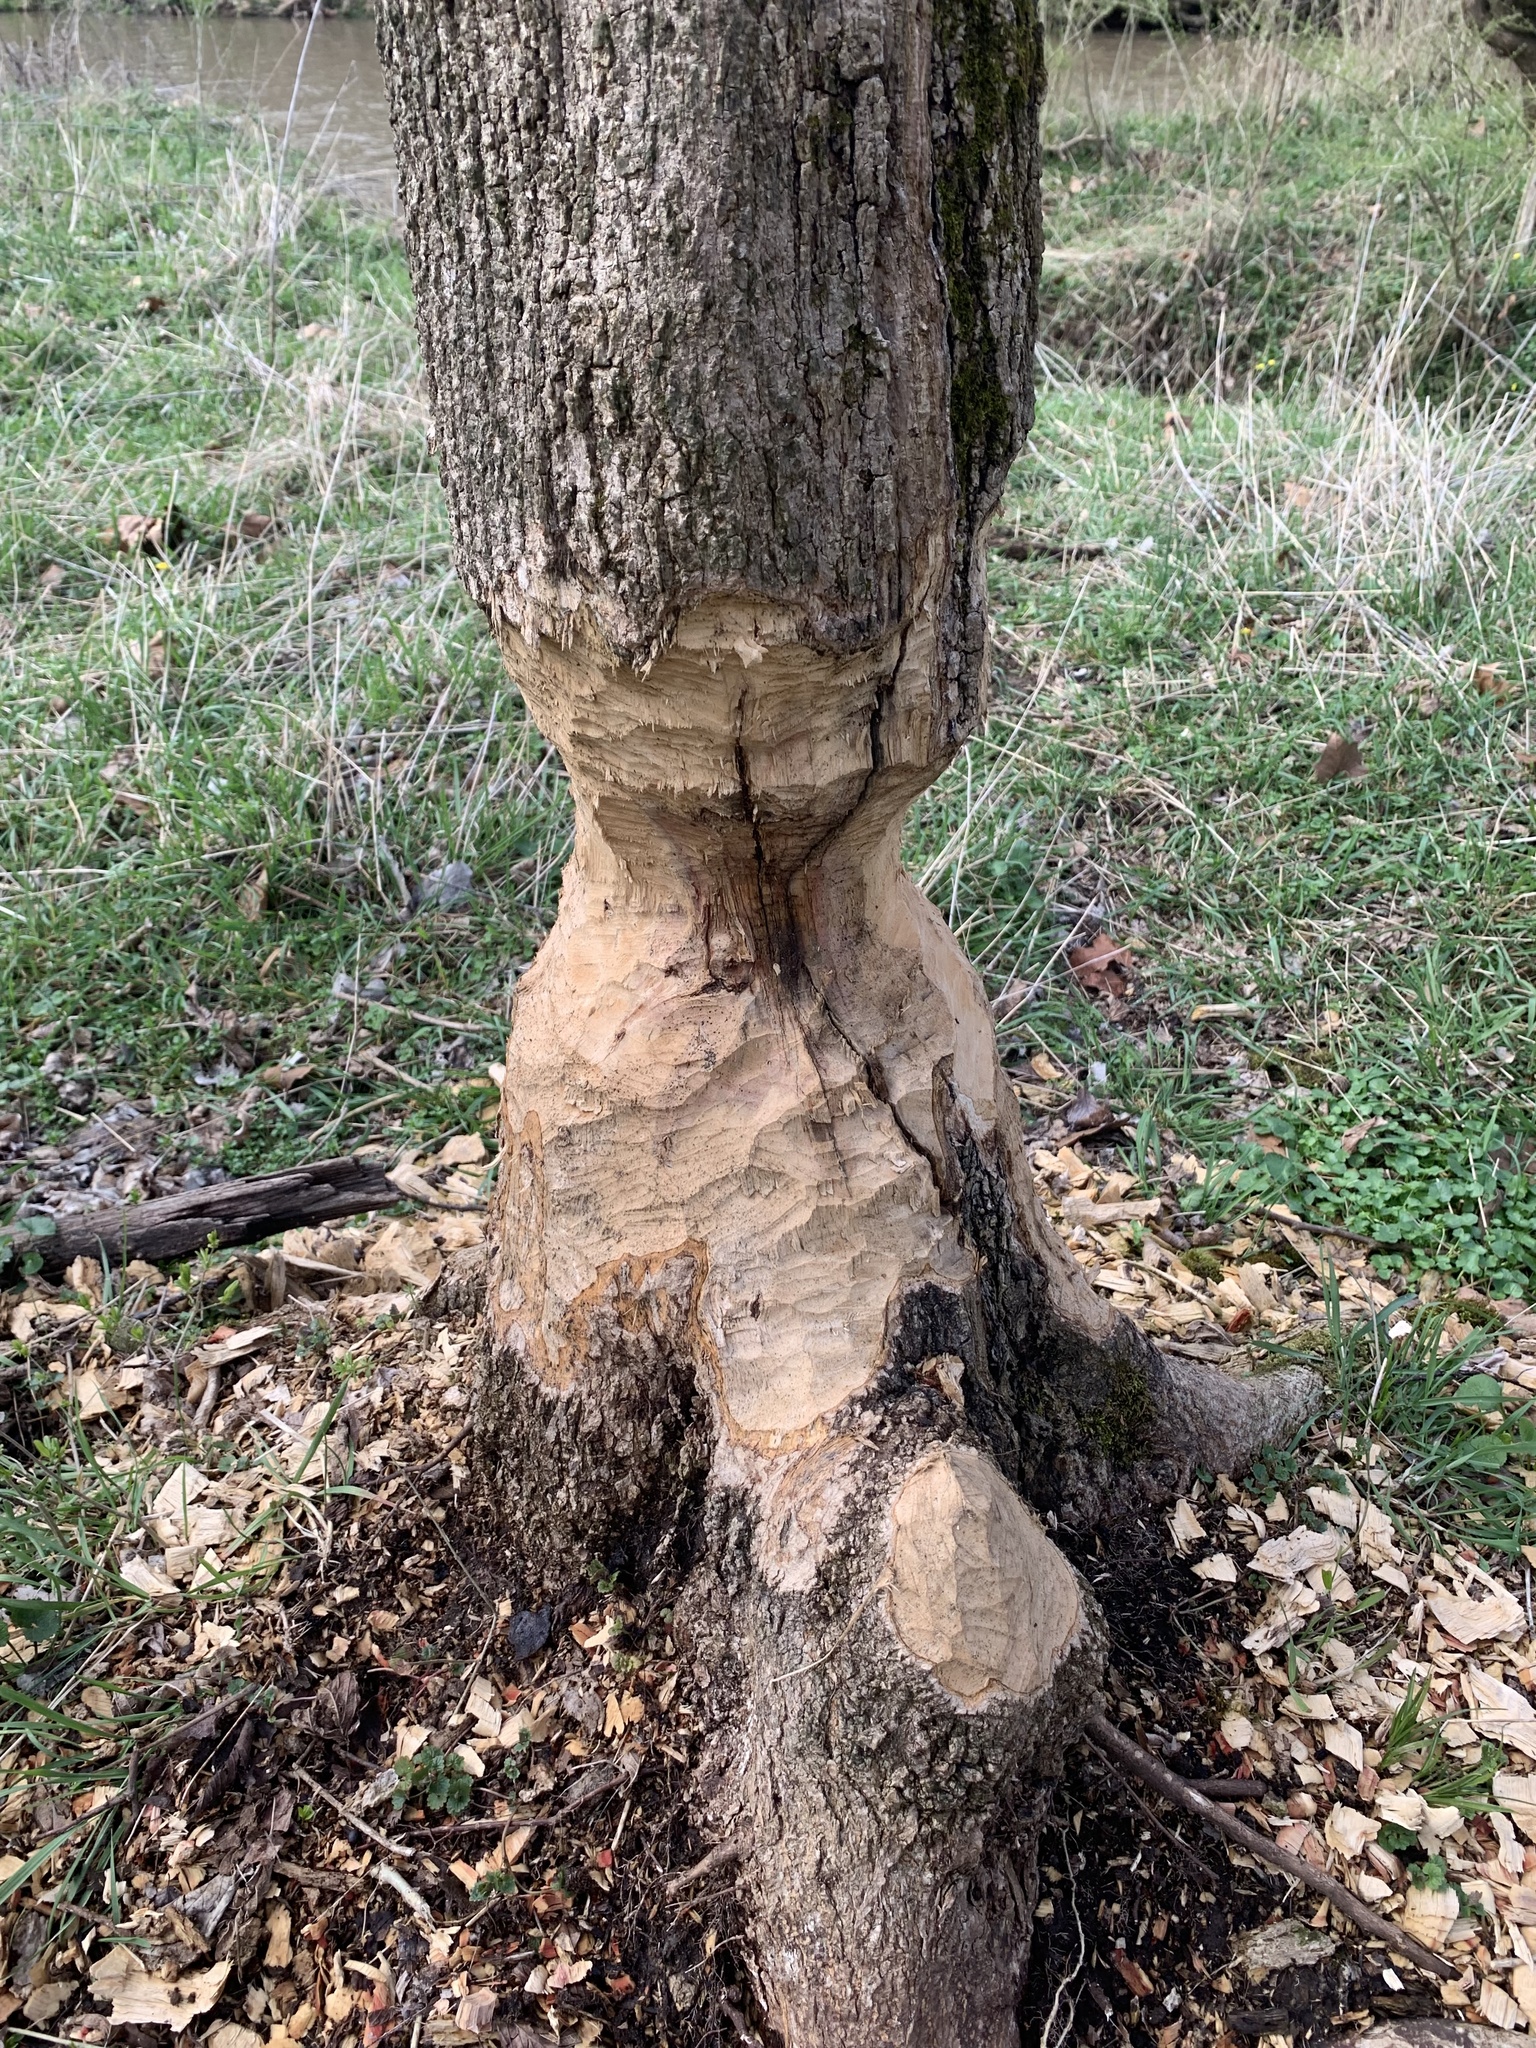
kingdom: Animalia
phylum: Chordata
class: Mammalia
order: Rodentia
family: Castoridae
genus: Castor
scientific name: Castor canadensis
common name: American beaver
